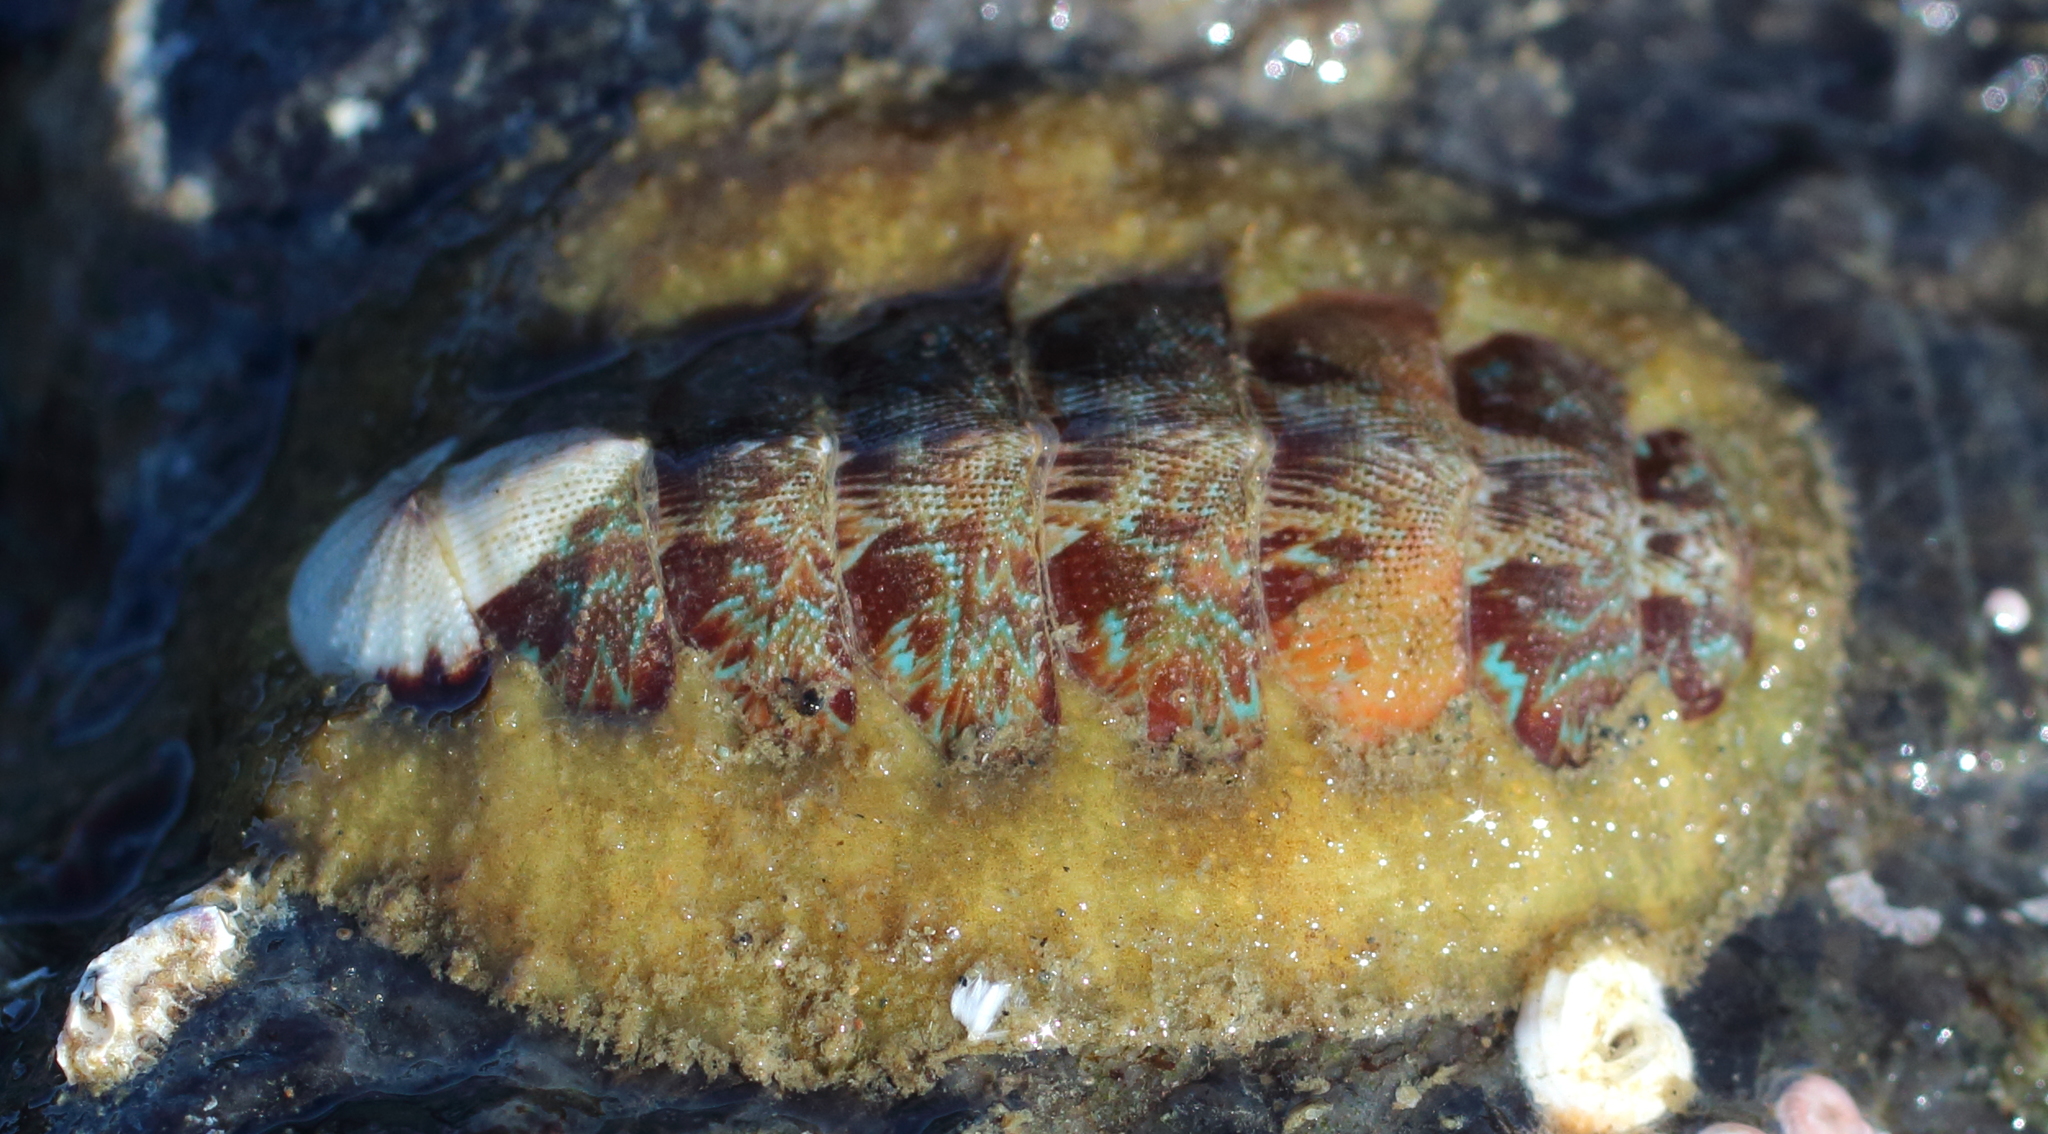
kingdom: Animalia
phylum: Mollusca
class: Polyplacophora
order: Chitonida
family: Mopaliidae
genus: Mopalia
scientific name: Mopalia swanii
